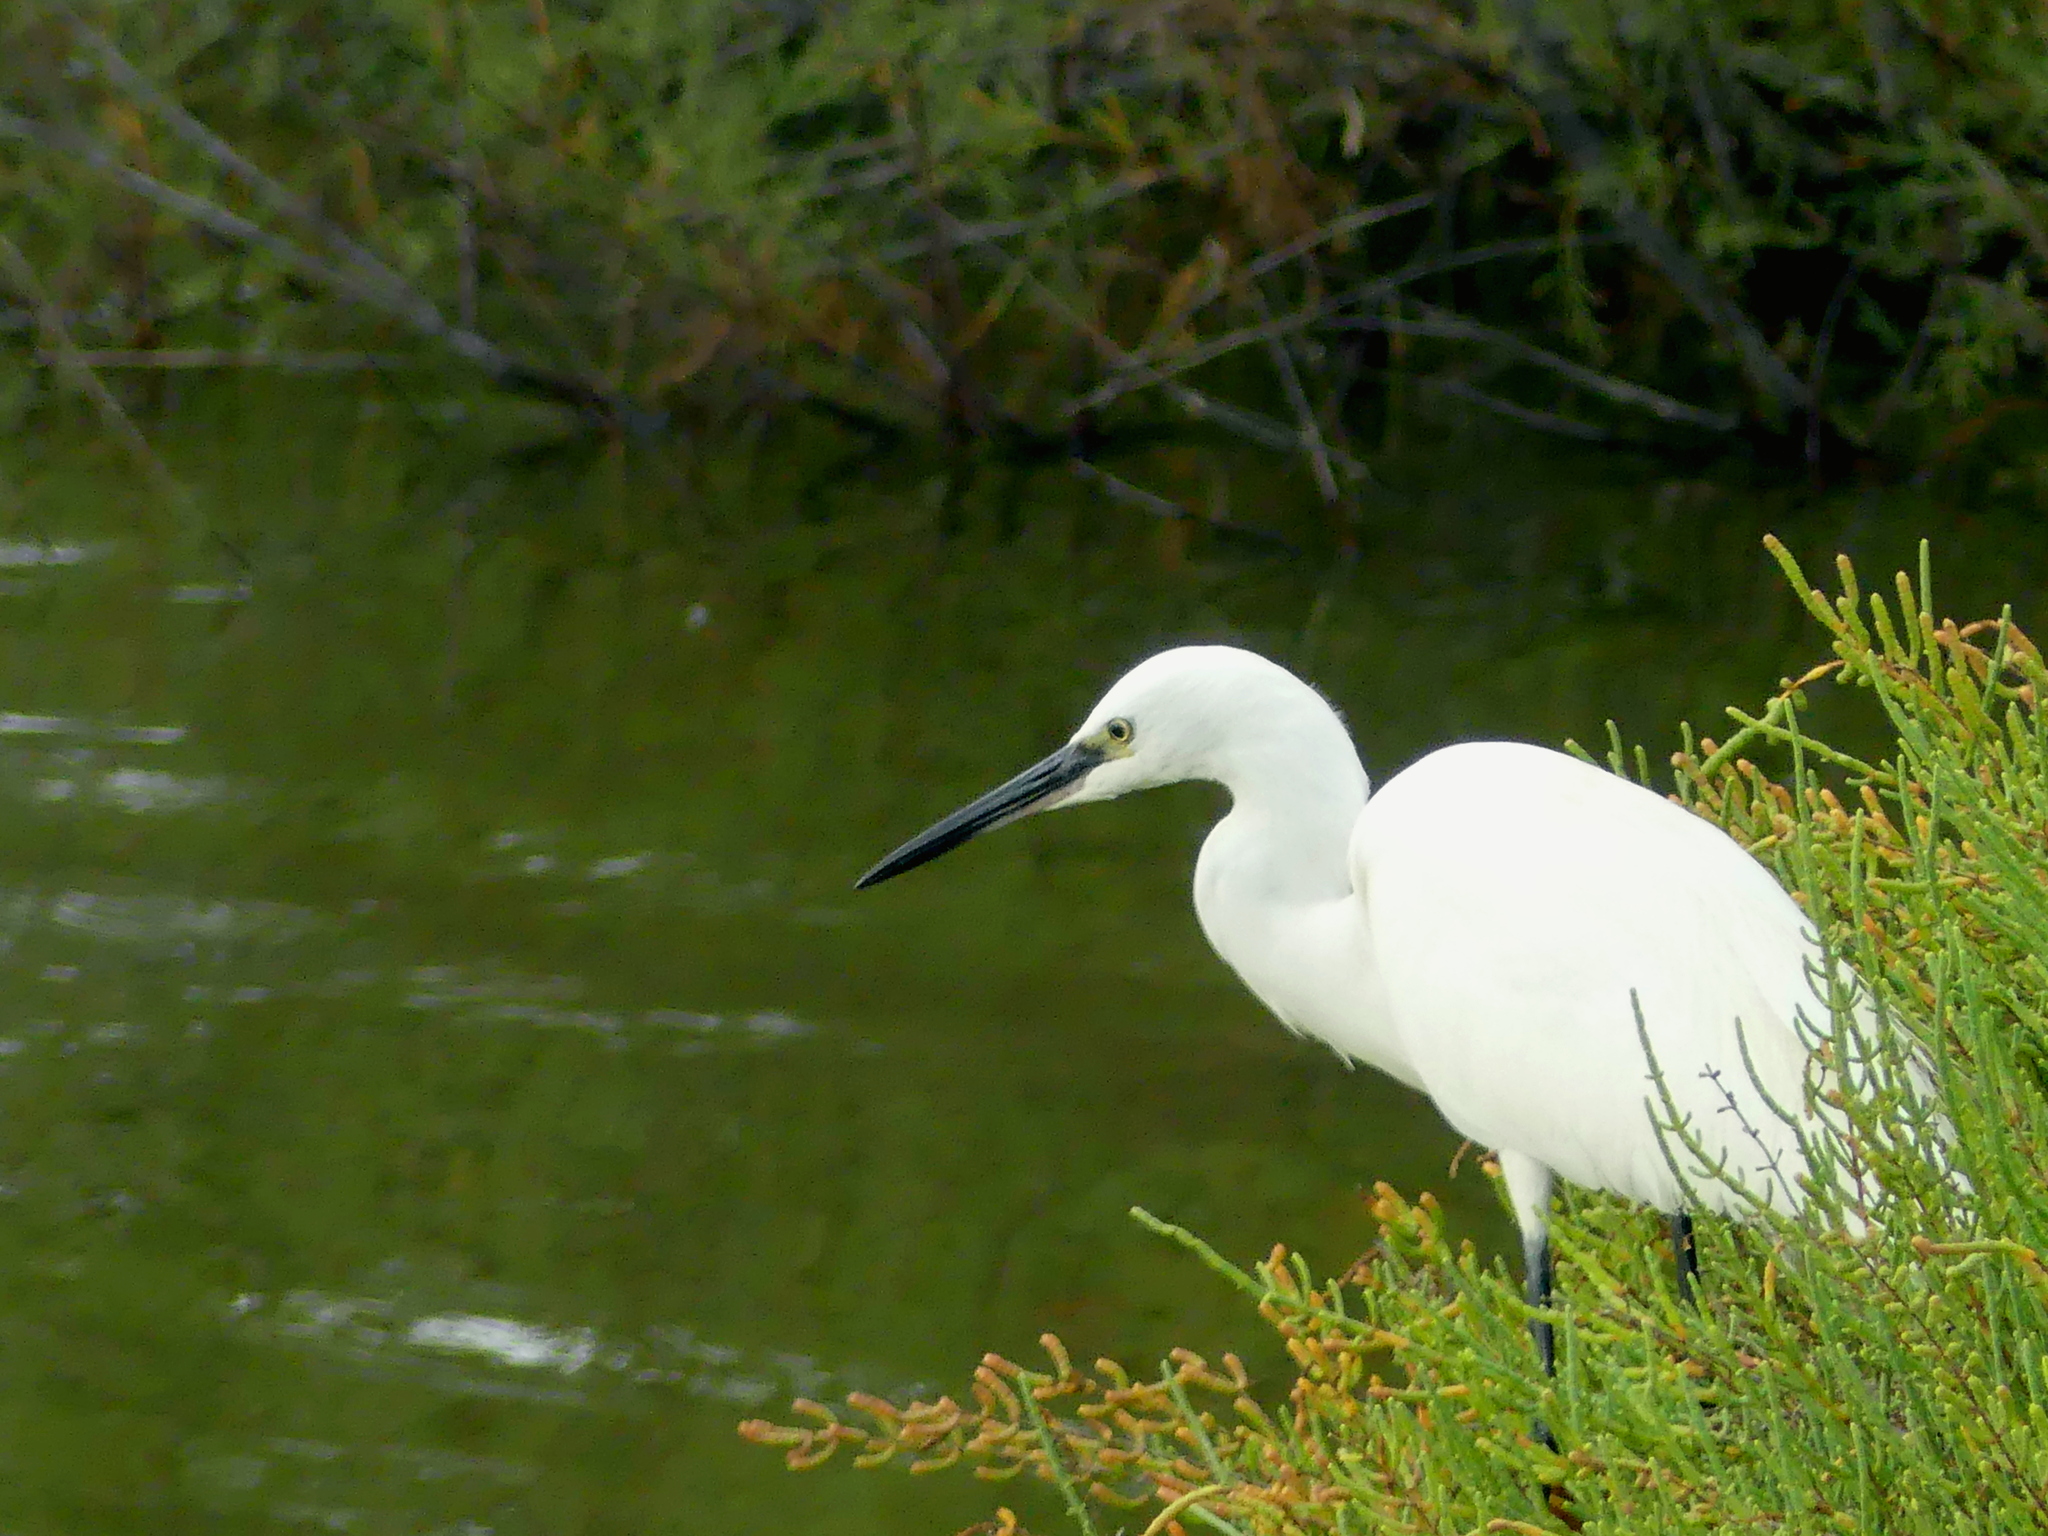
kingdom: Animalia
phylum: Chordata
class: Aves
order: Pelecaniformes
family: Ardeidae
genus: Egretta
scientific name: Egretta garzetta
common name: Little egret
